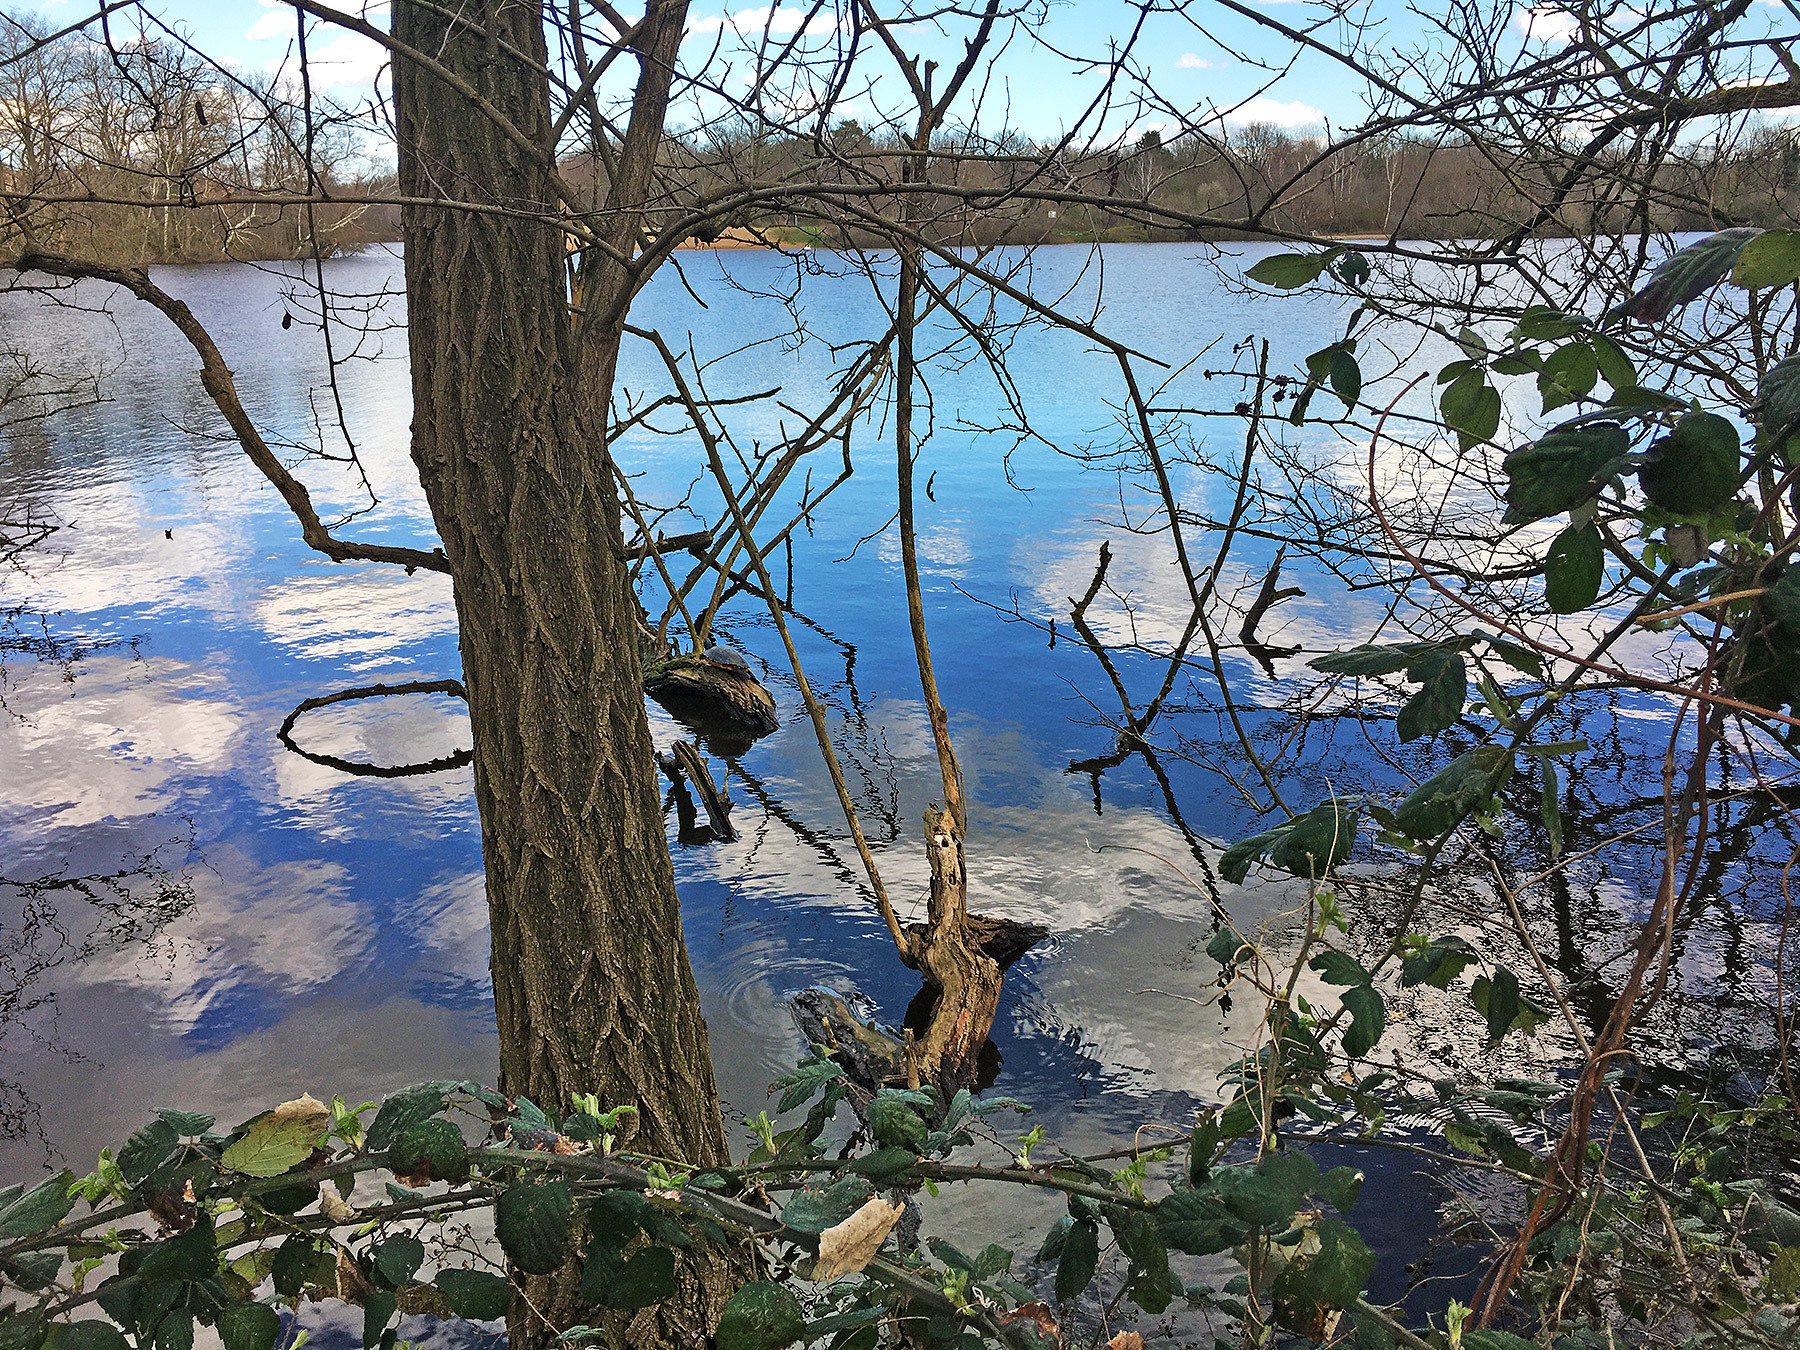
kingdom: Animalia
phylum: Chordata
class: Testudines
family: Emydidae
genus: Trachemys
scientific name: Trachemys scripta
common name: Slider
